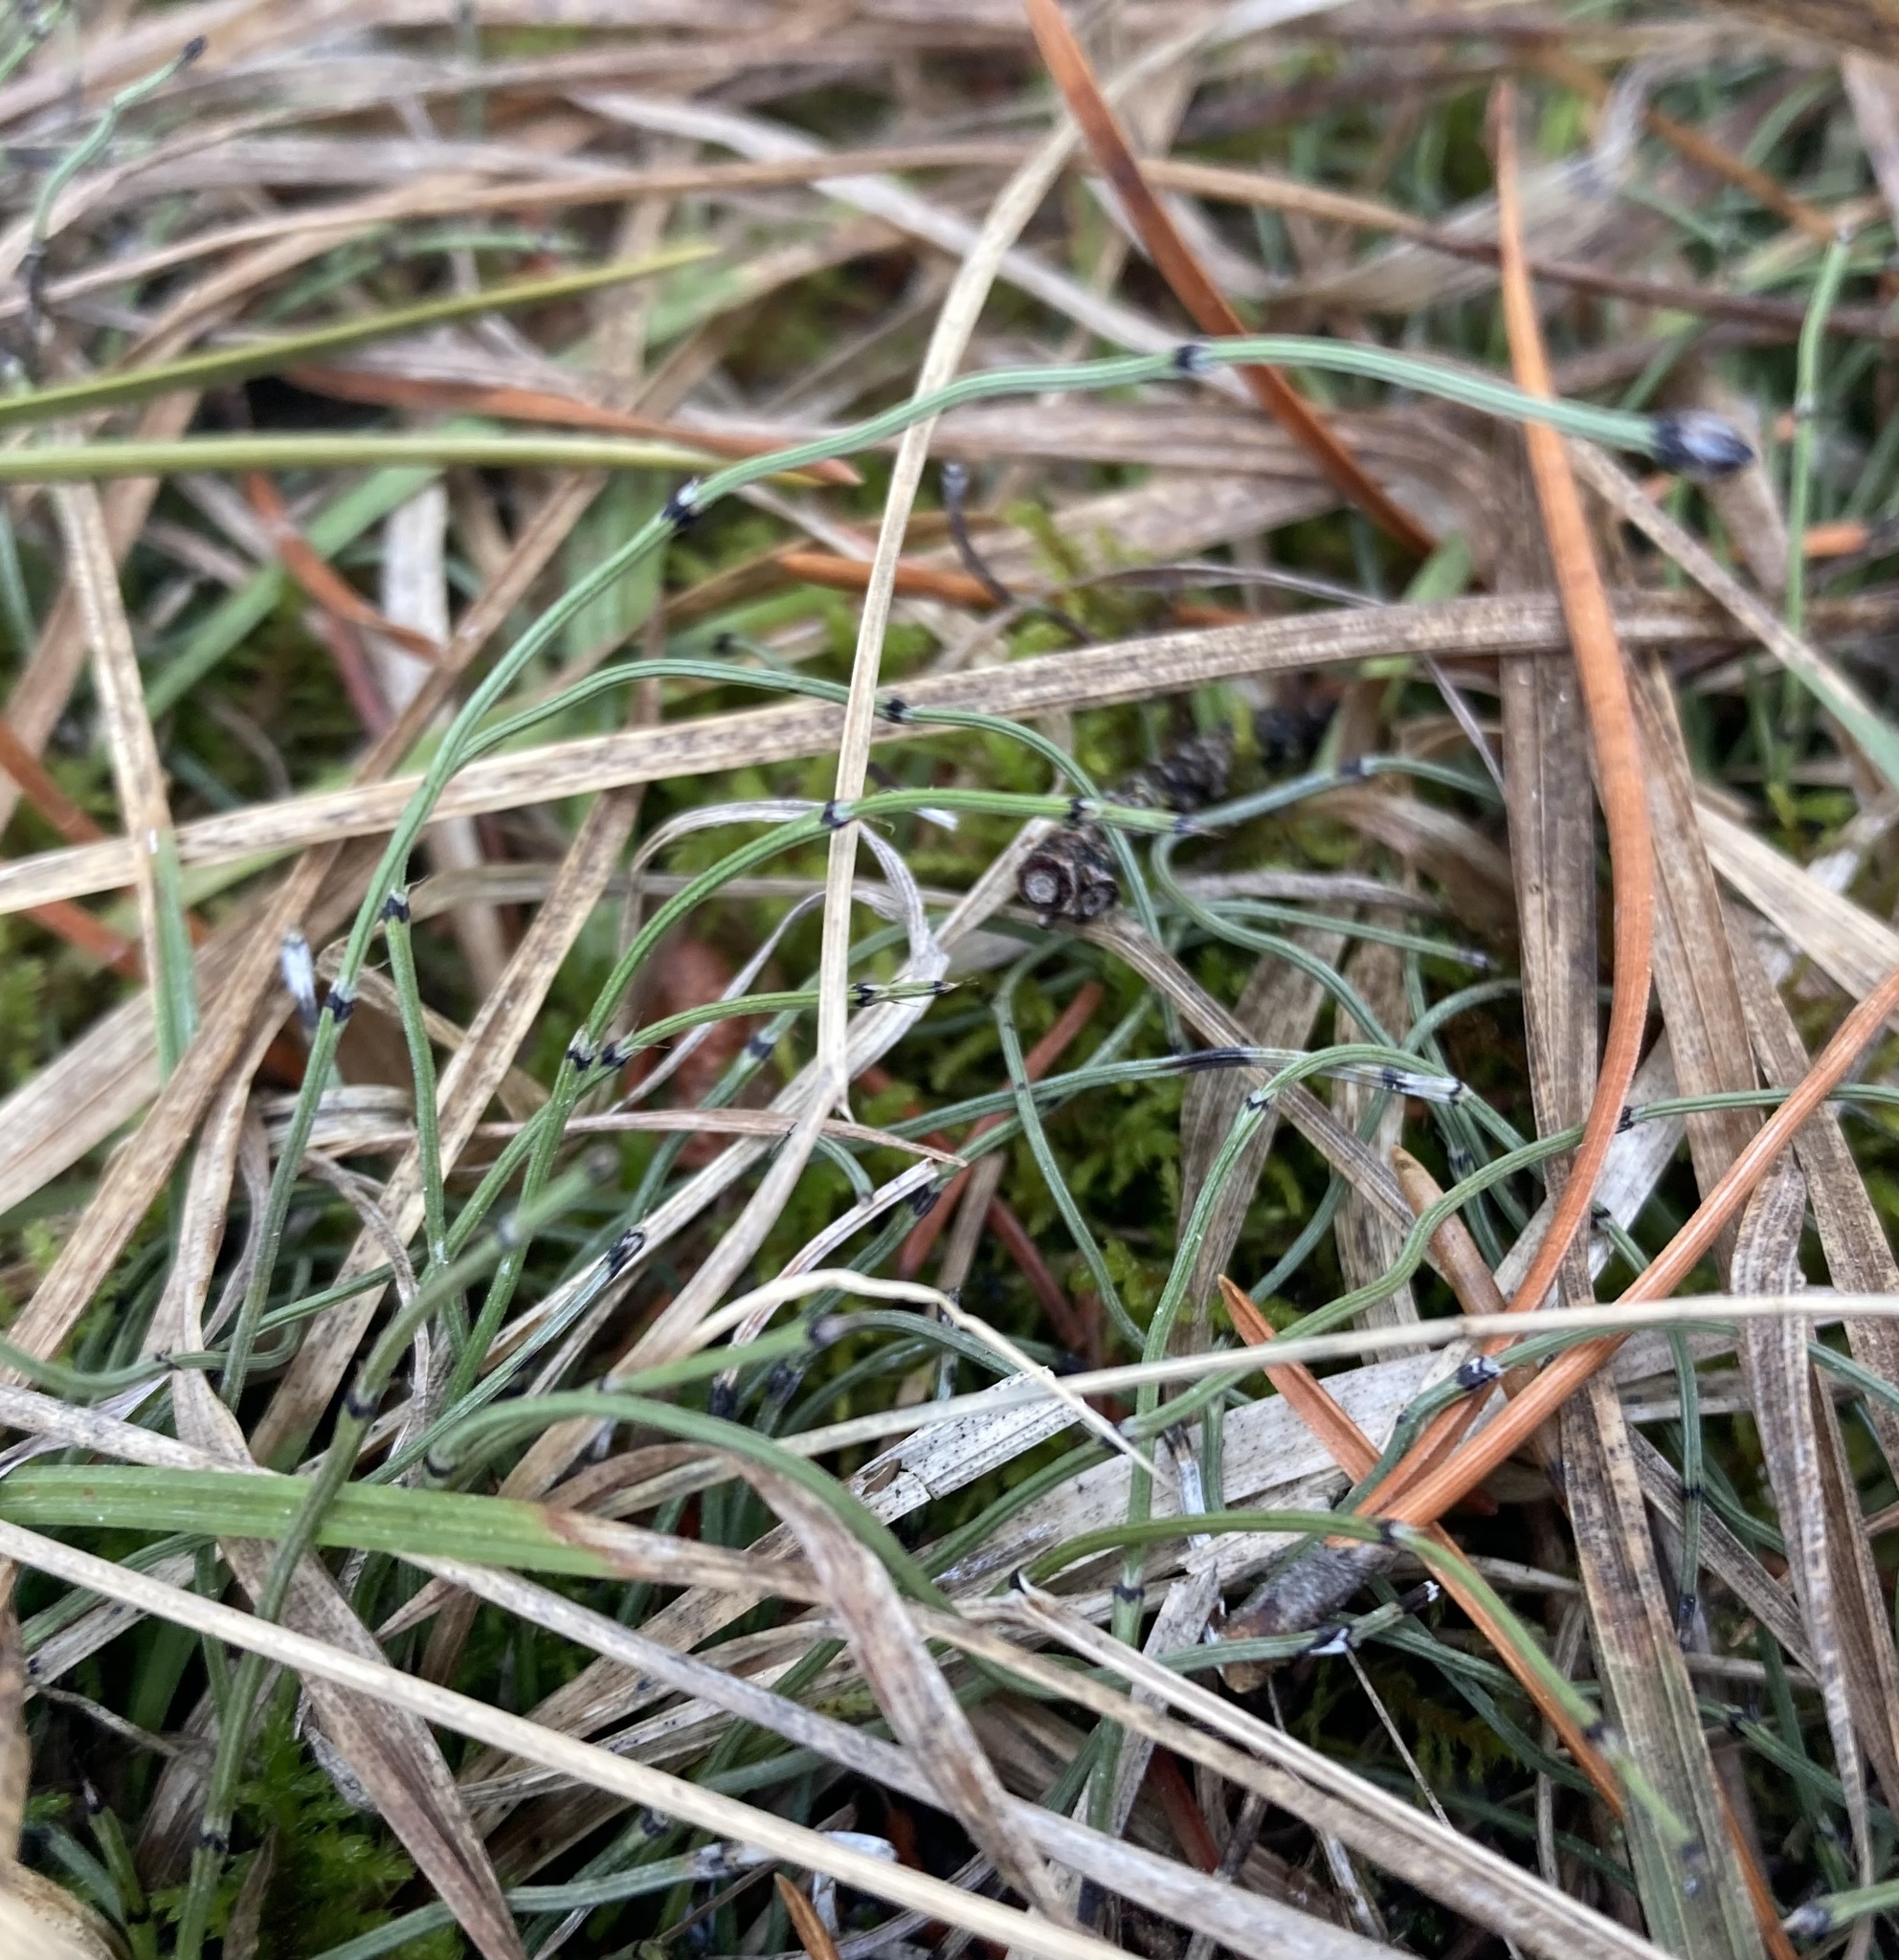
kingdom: Plantae
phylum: Tracheophyta
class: Polypodiopsida
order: Equisetales
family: Equisetaceae
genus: Equisetum
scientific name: Equisetum scirpoides
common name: Delicate horsetail
